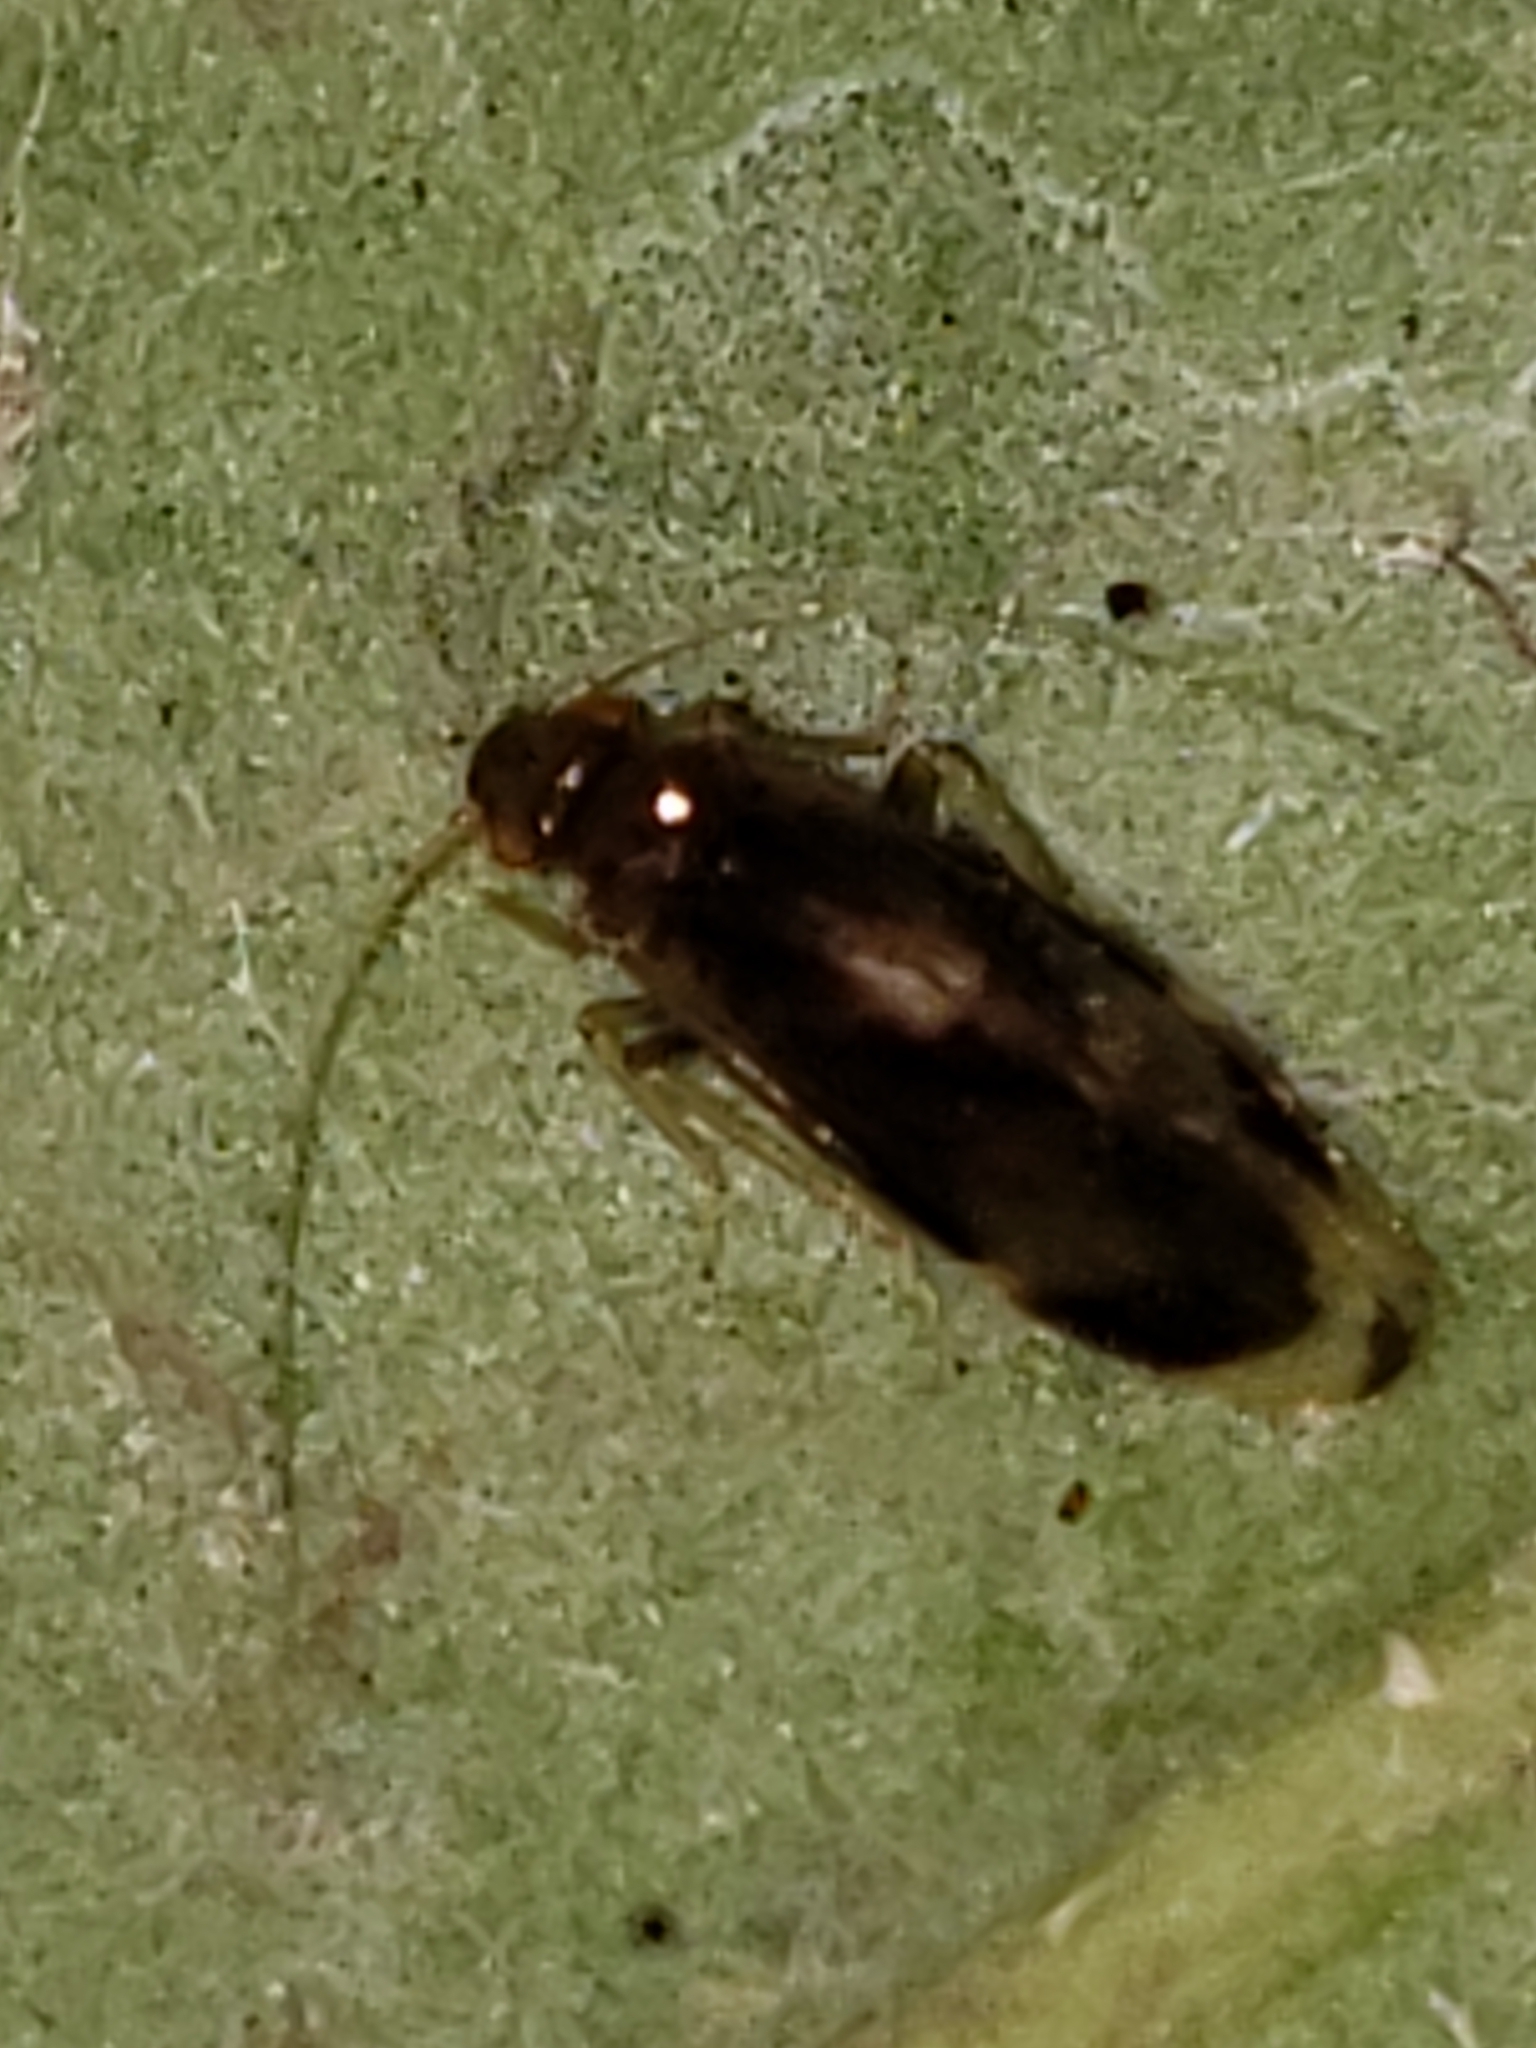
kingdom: Animalia
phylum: Arthropoda
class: Insecta
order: Psocodea
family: Amphipsocidae
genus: Polypsocus
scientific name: Polypsocus corruptus
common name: Corrupt barklouse
